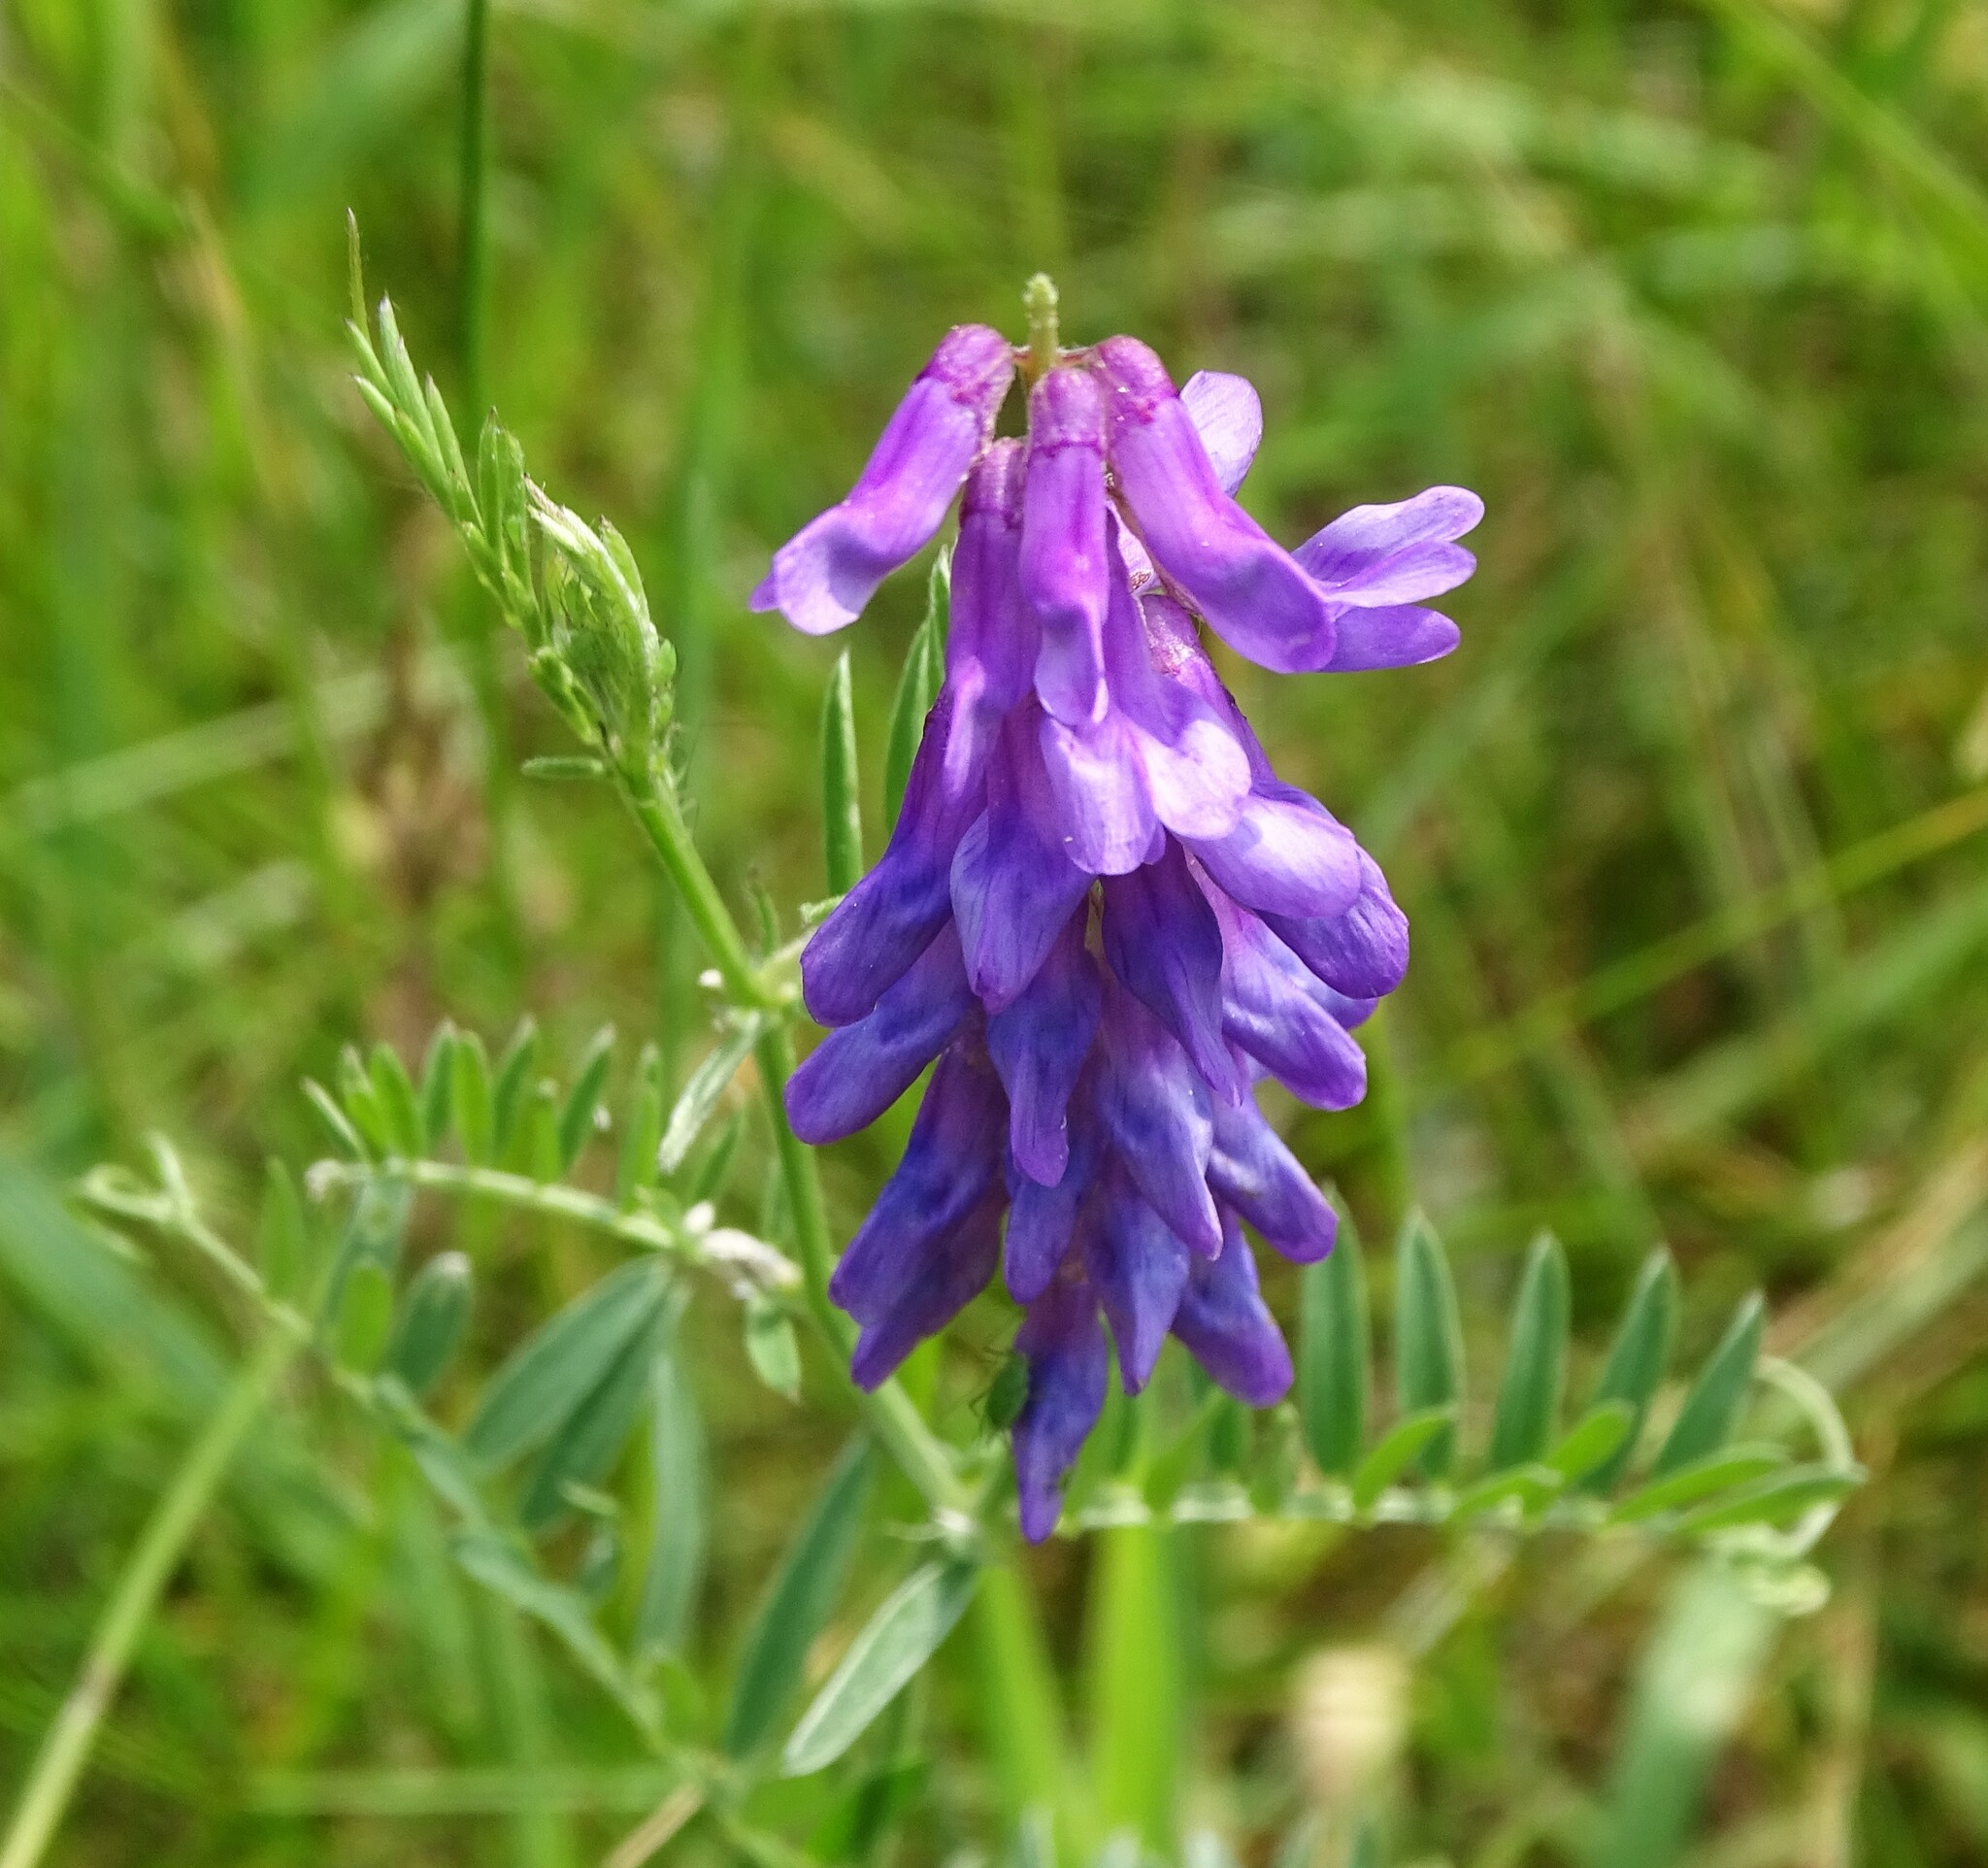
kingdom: Plantae
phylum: Tracheophyta
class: Magnoliopsida
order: Fabales
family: Fabaceae
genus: Vicia
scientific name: Vicia cracca
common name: Bird vetch
